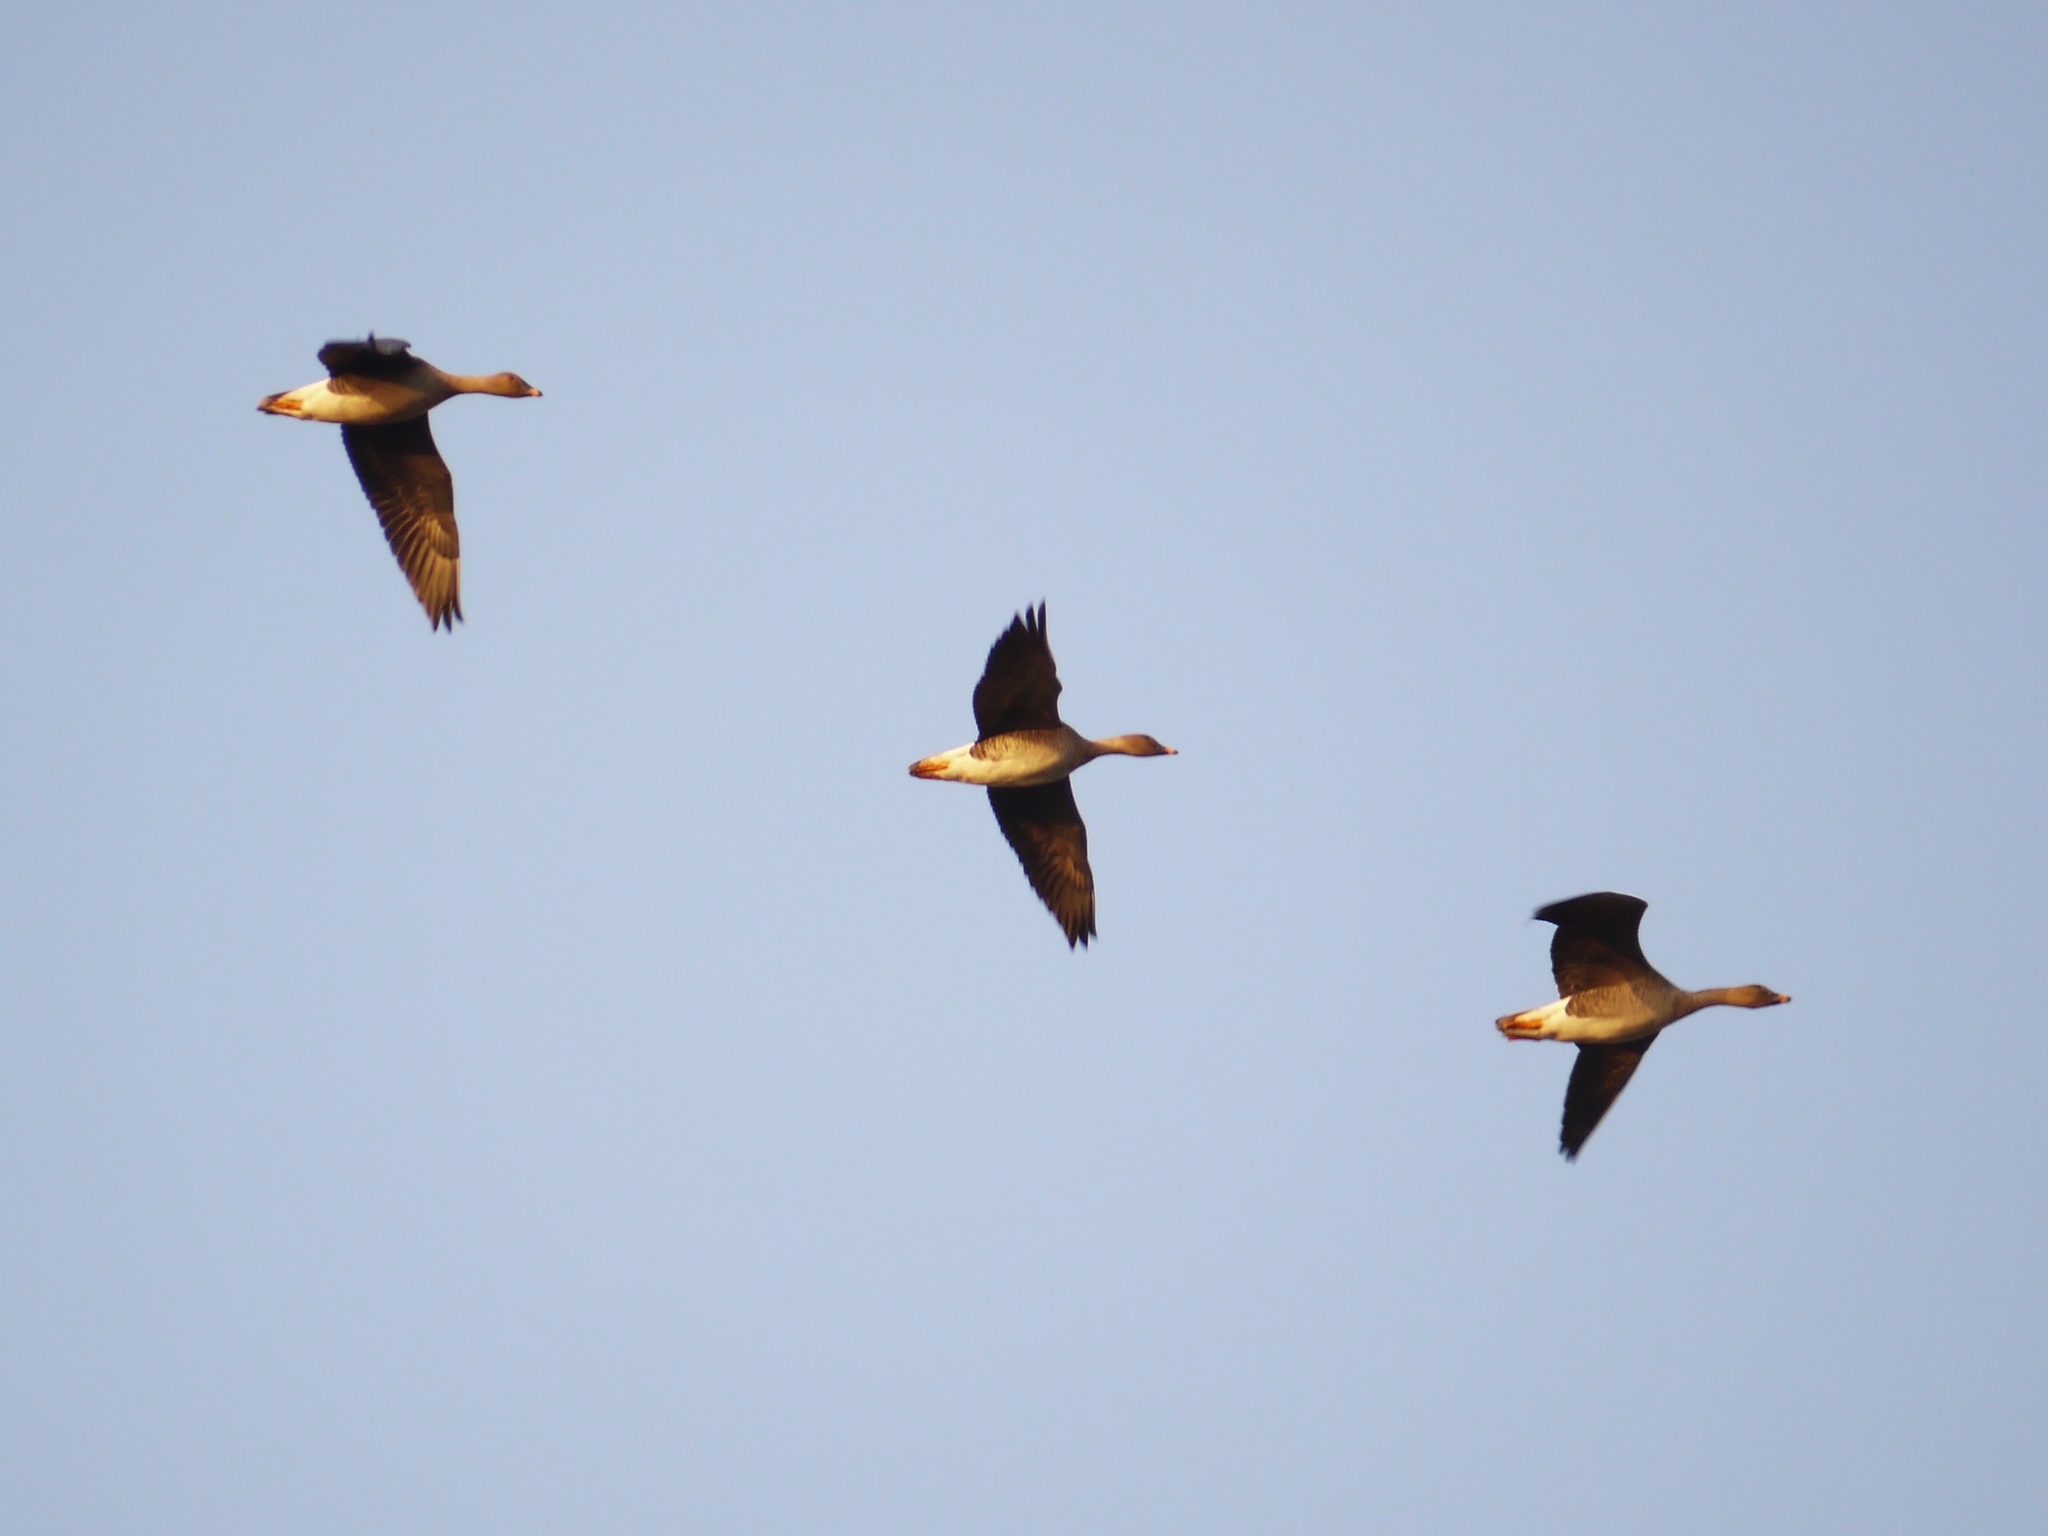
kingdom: Animalia
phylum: Chordata
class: Aves
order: Anseriformes
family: Anatidae
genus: Anser
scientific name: Anser serrirostris
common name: Tundra bean goose
